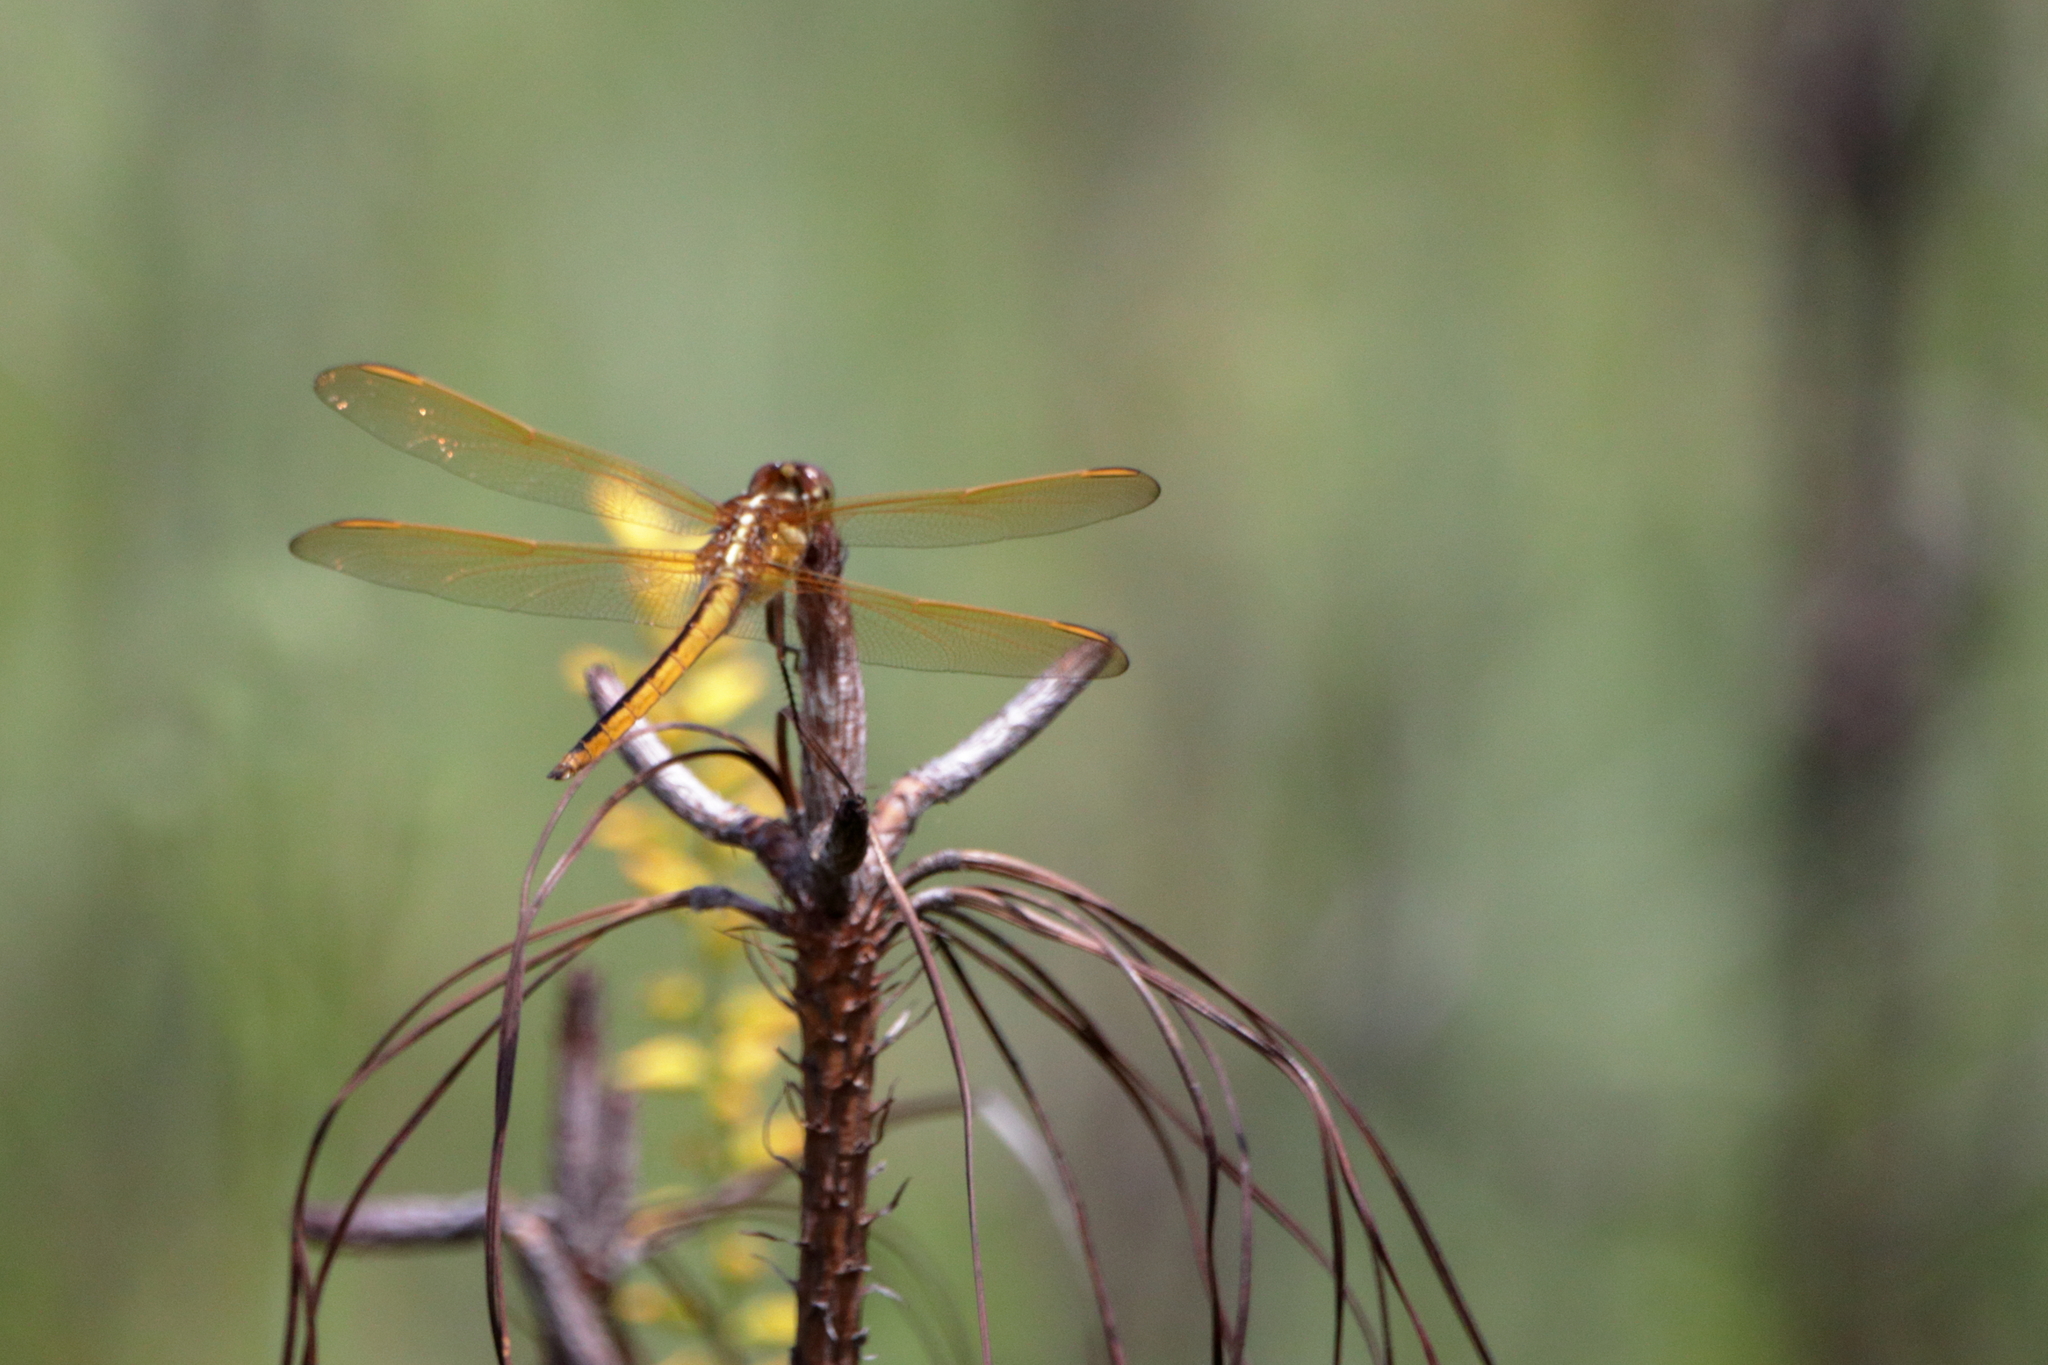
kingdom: Animalia
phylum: Arthropoda
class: Insecta
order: Odonata
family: Libellulidae
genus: Libellula
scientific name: Libellula needhami
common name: Needham's skimmer
